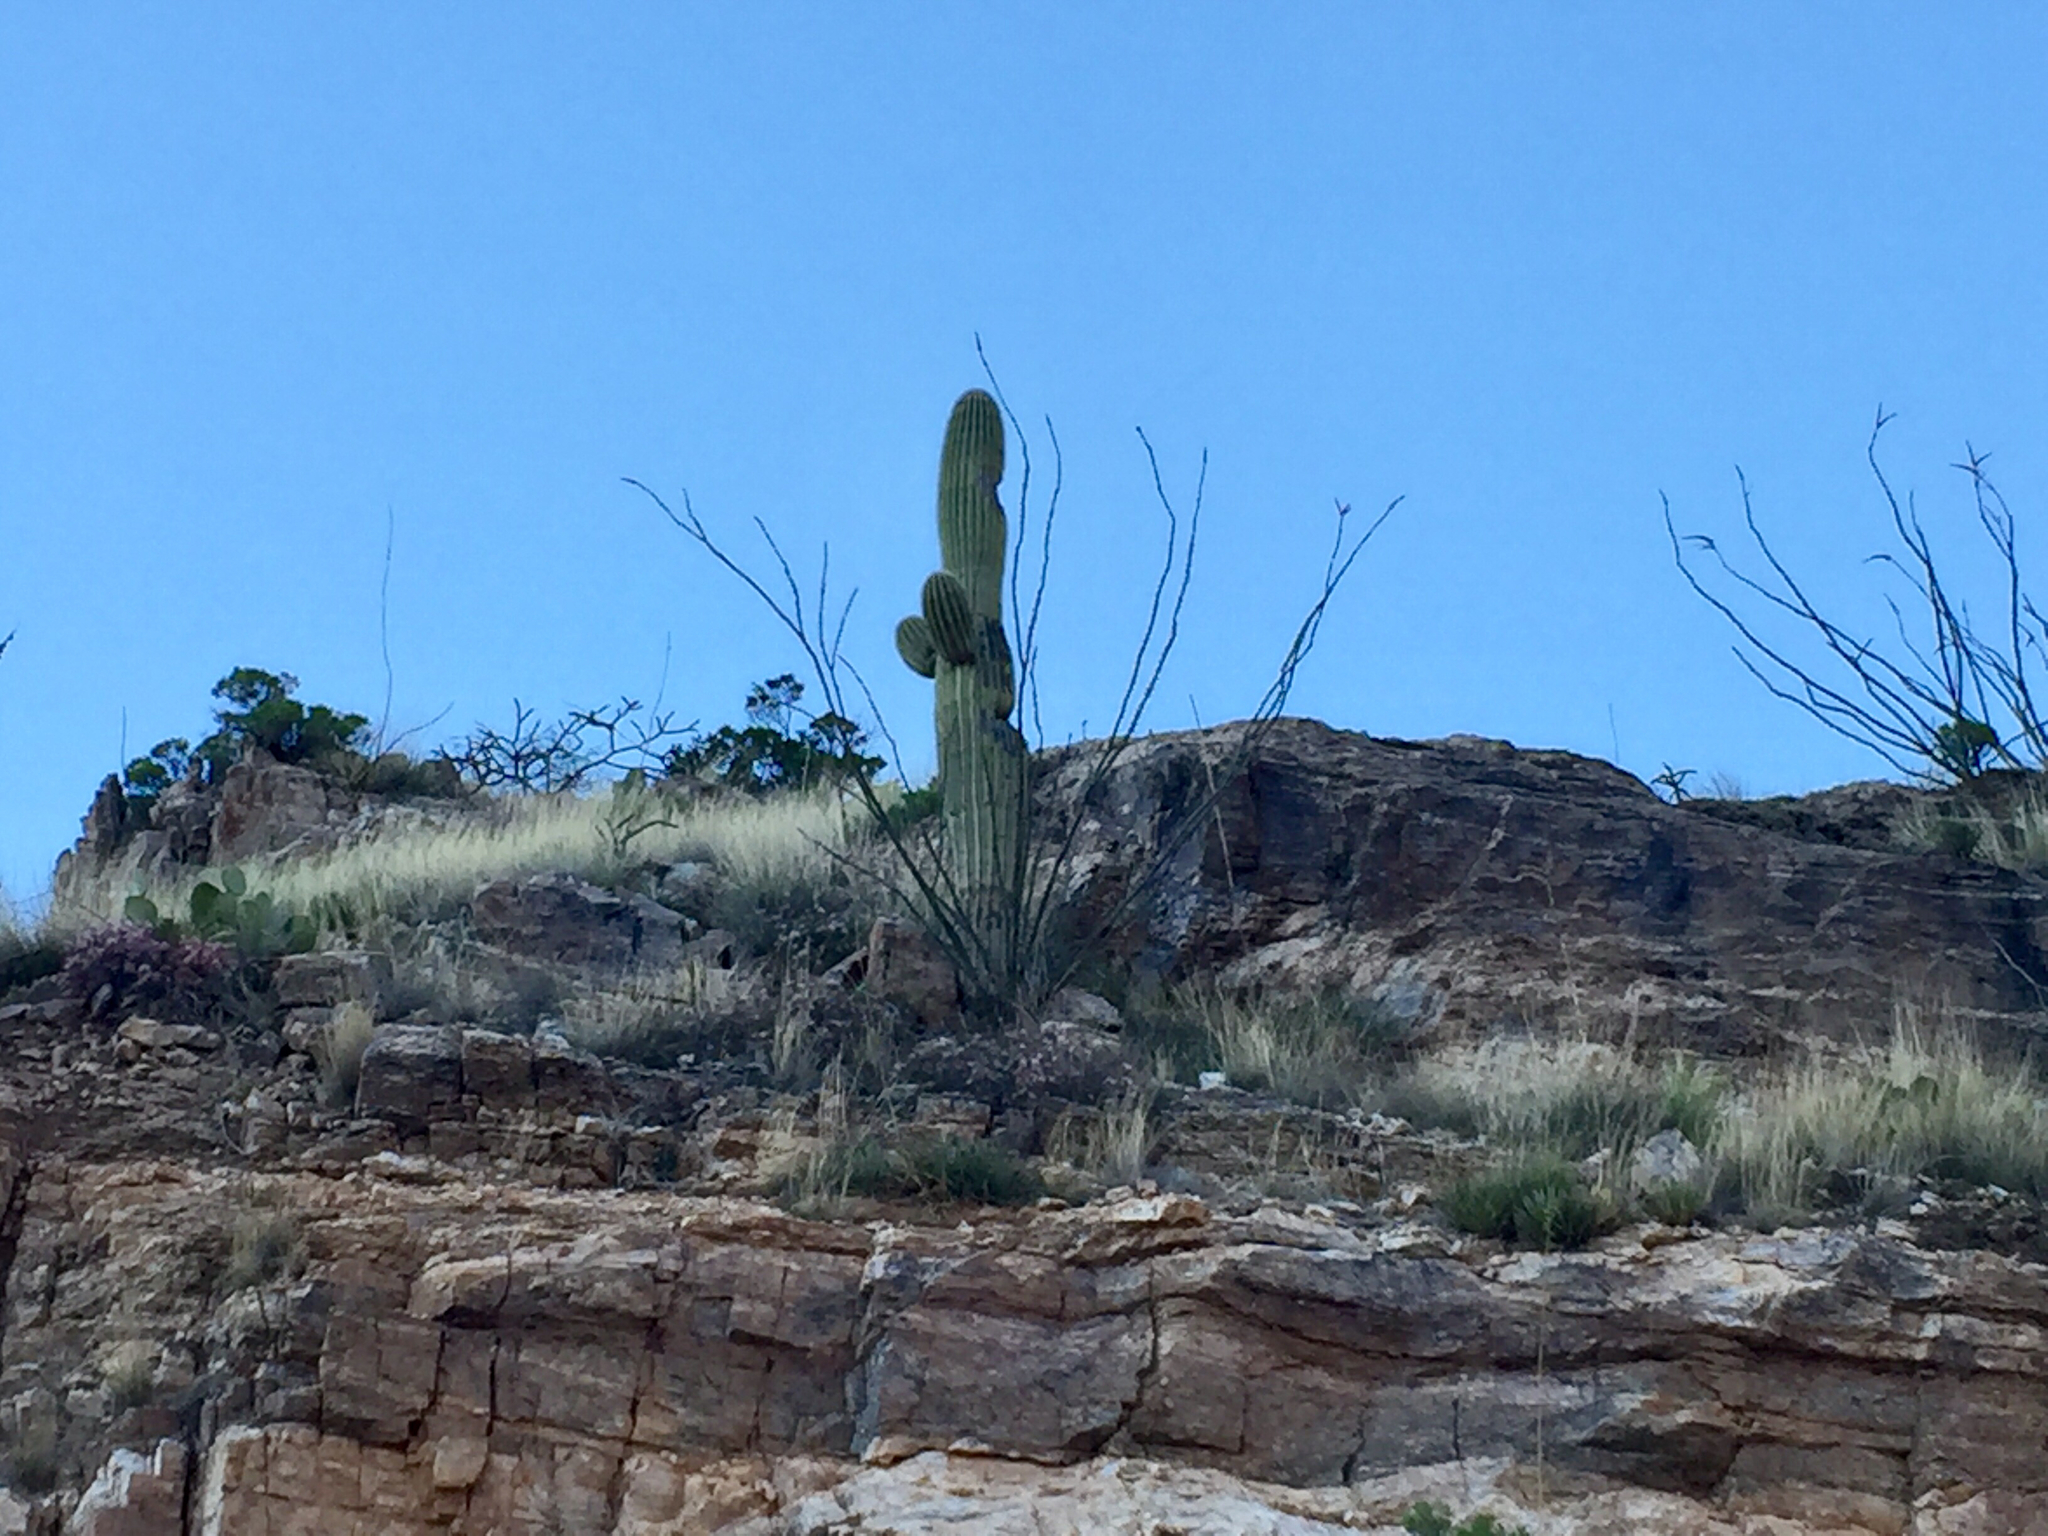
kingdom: Plantae
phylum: Tracheophyta
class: Magnoliopsida
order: Ericales
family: Fouquieriaceae
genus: Fouquieria
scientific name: Fouquieria splendens
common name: Vine-cactus
